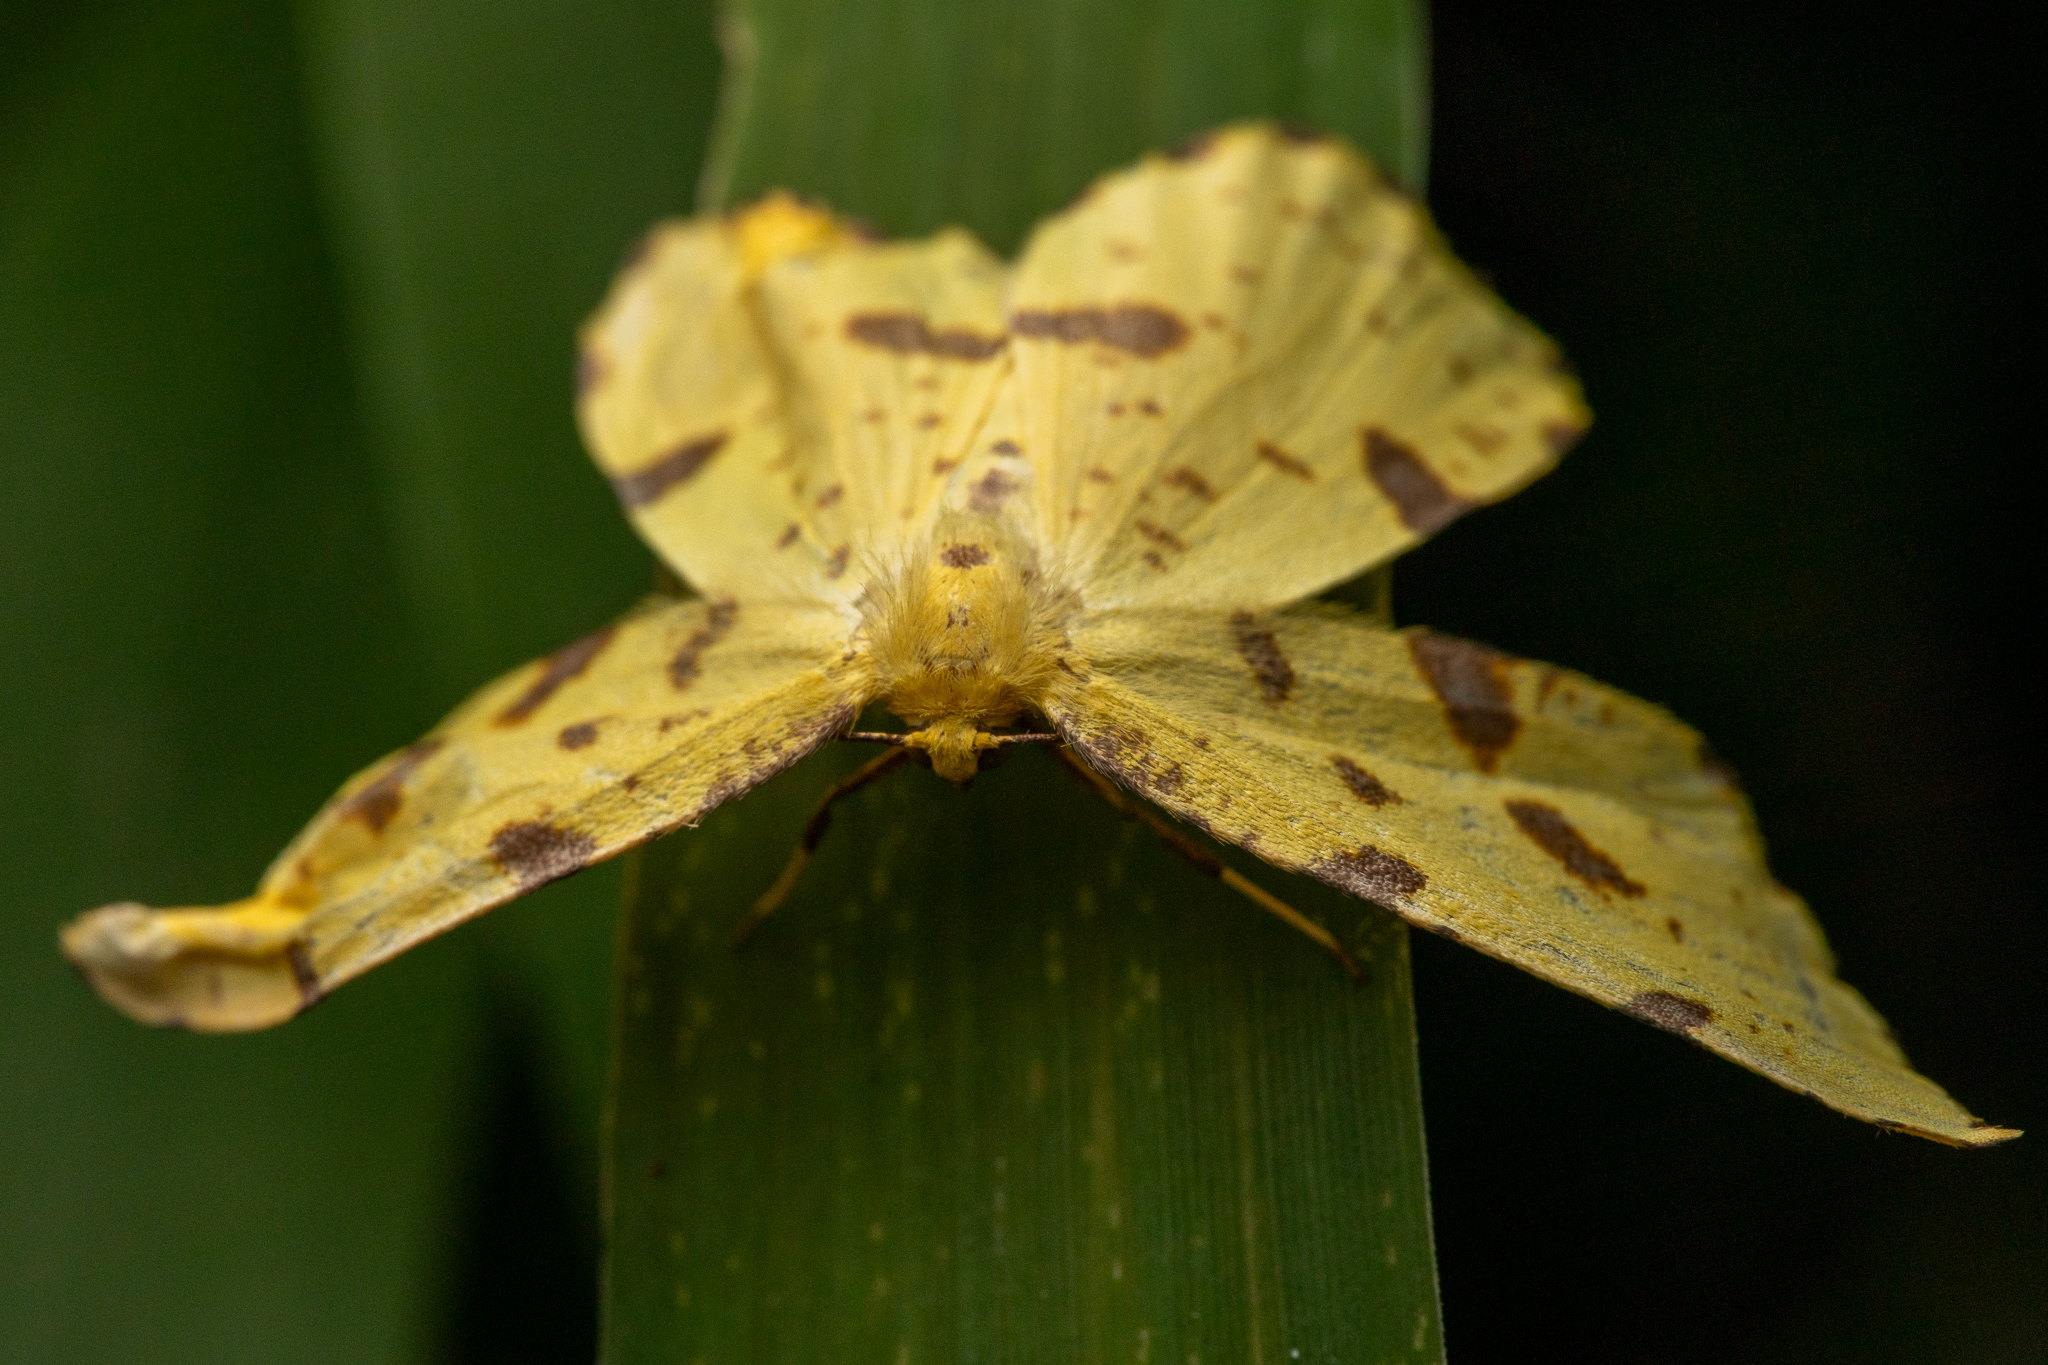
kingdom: Animalia
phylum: Arthropoda
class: Insecta
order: Lepidoptera
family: Geometridae
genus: Xanthotype
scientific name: Xanthotype
